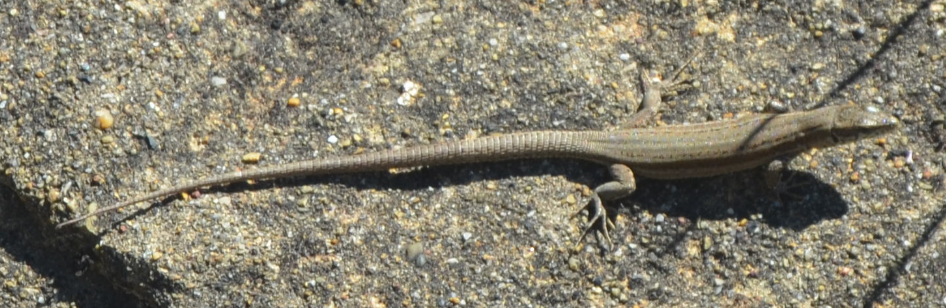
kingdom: Animalia
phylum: Chordata
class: Squamata
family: Lacertidae
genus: Podarcis
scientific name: Podarcis liolepis
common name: Catalonian wall lizard
